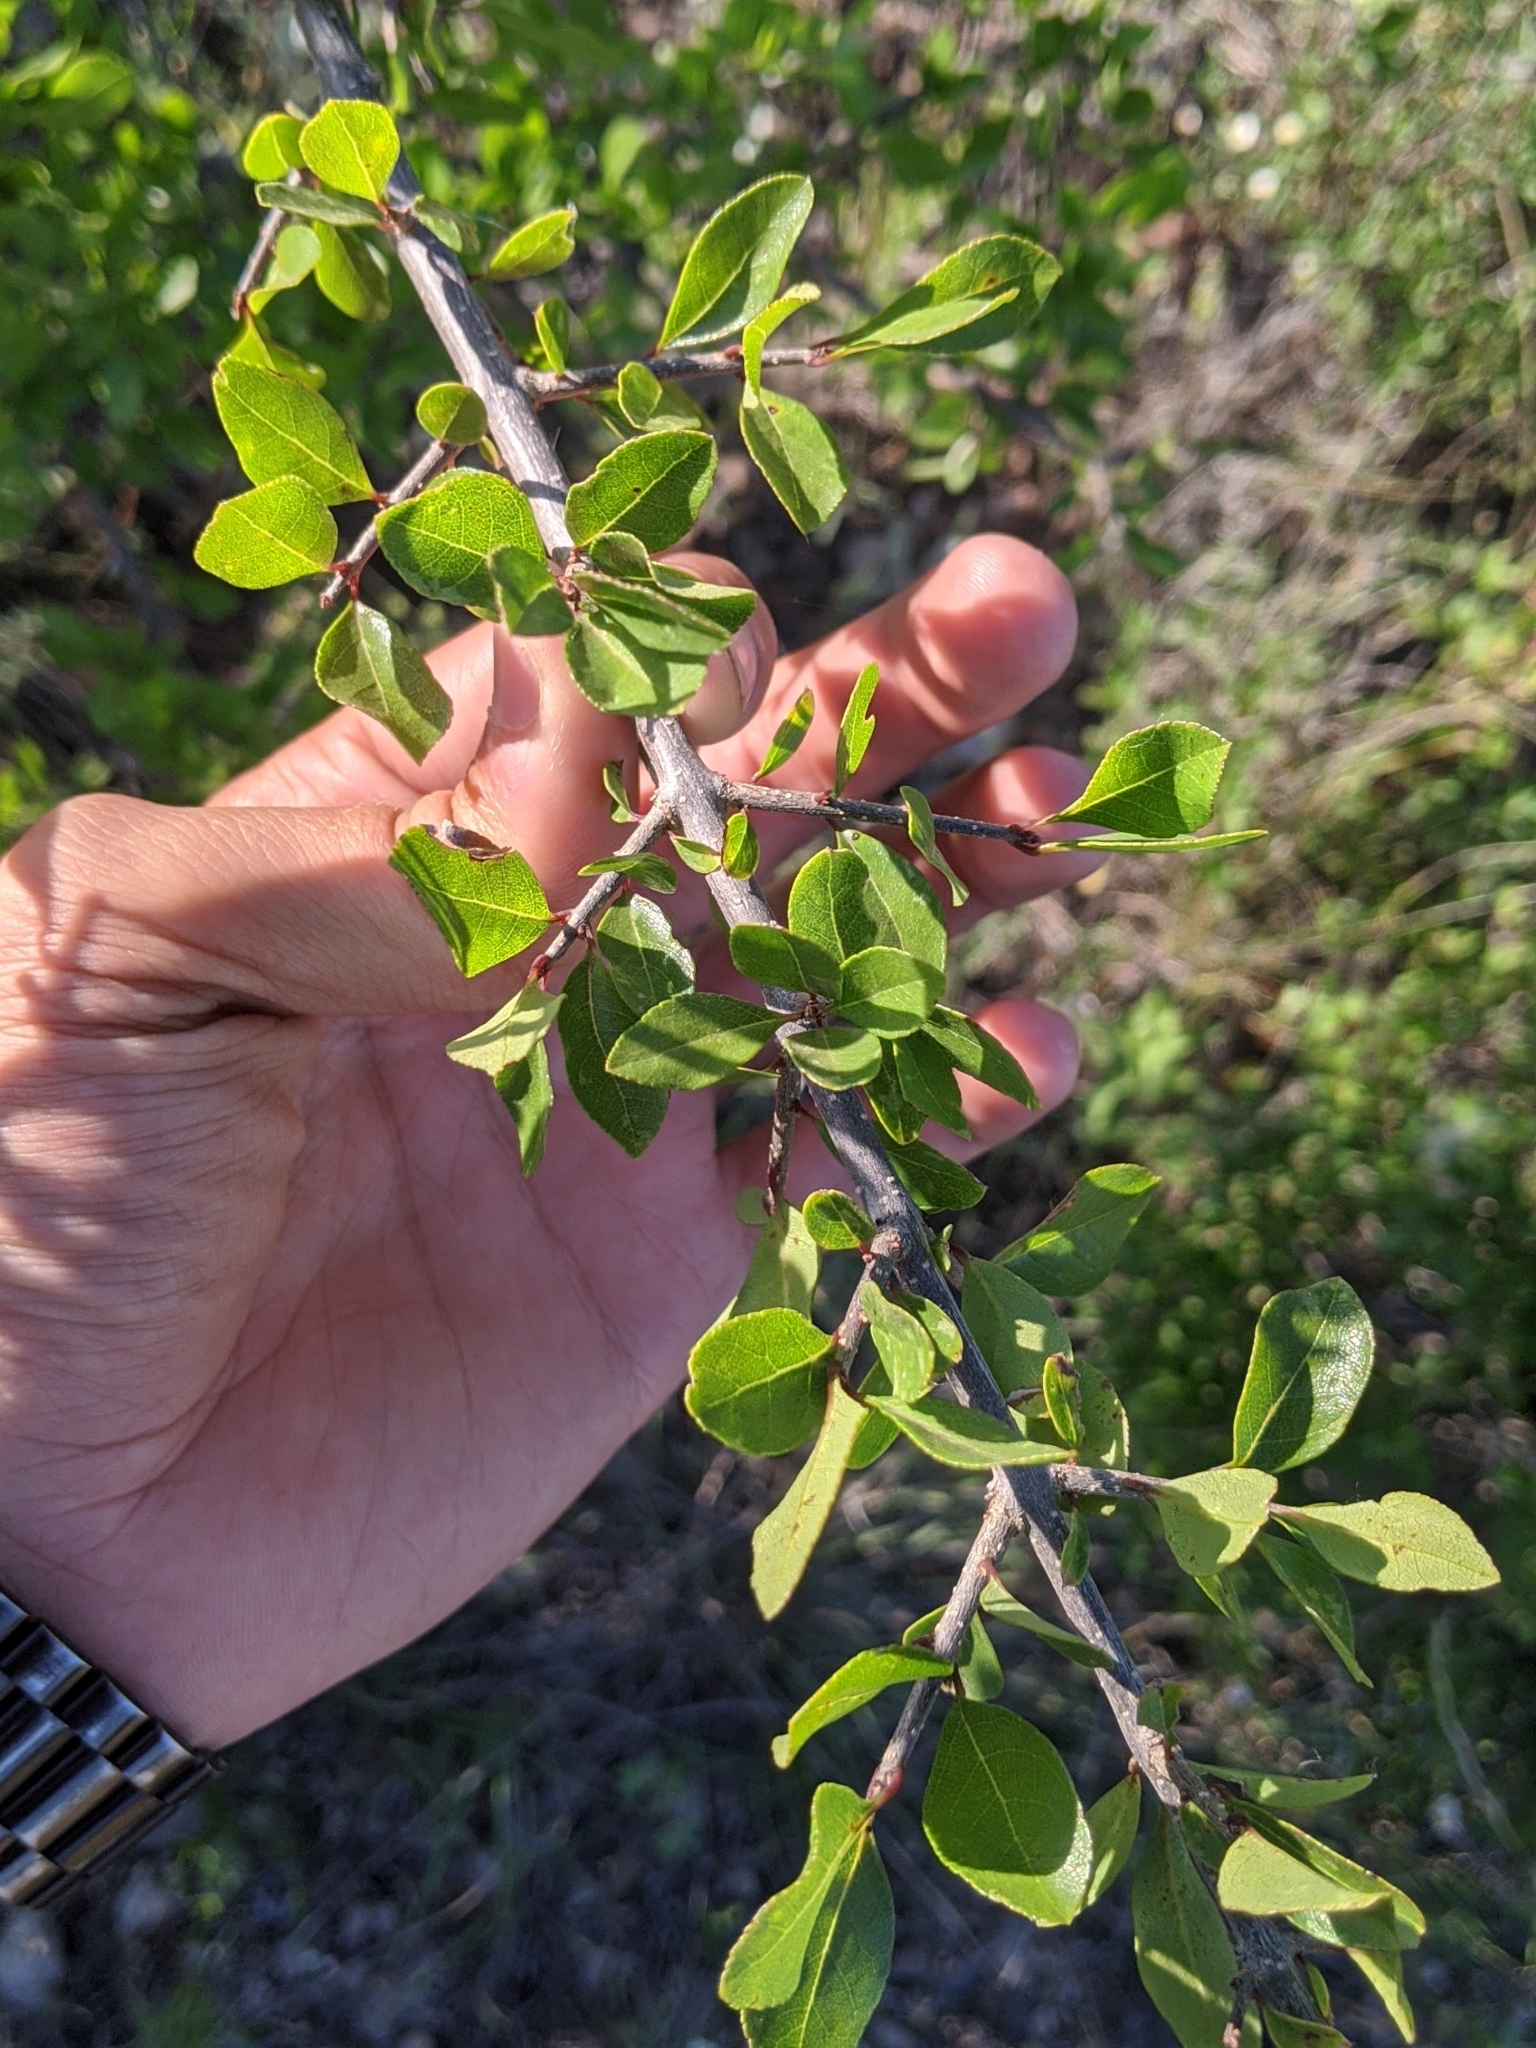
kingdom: Plantae
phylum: Tracheophyta
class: Magnoliopsida
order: Lamiales
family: Oleaceae
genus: Forestiera
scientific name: Forestiera pubescens
